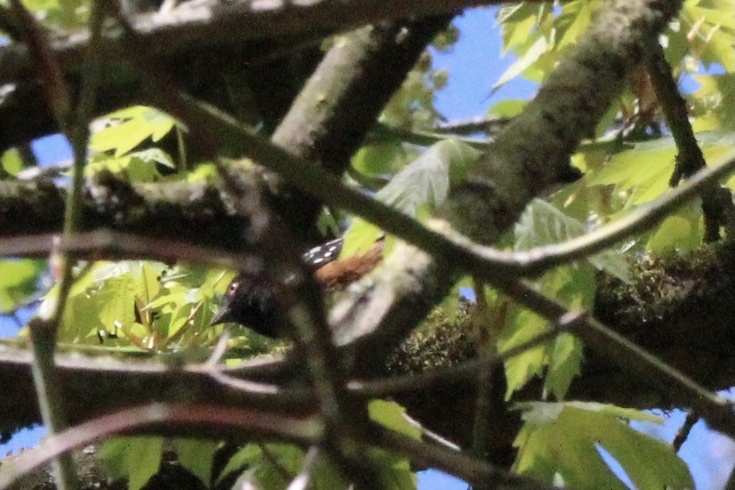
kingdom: Animalia
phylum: Chordata
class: Aves
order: Passeriformes
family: Passerellidae
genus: Pipilo
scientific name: Pipilo maculatus
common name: Spotted towhee
